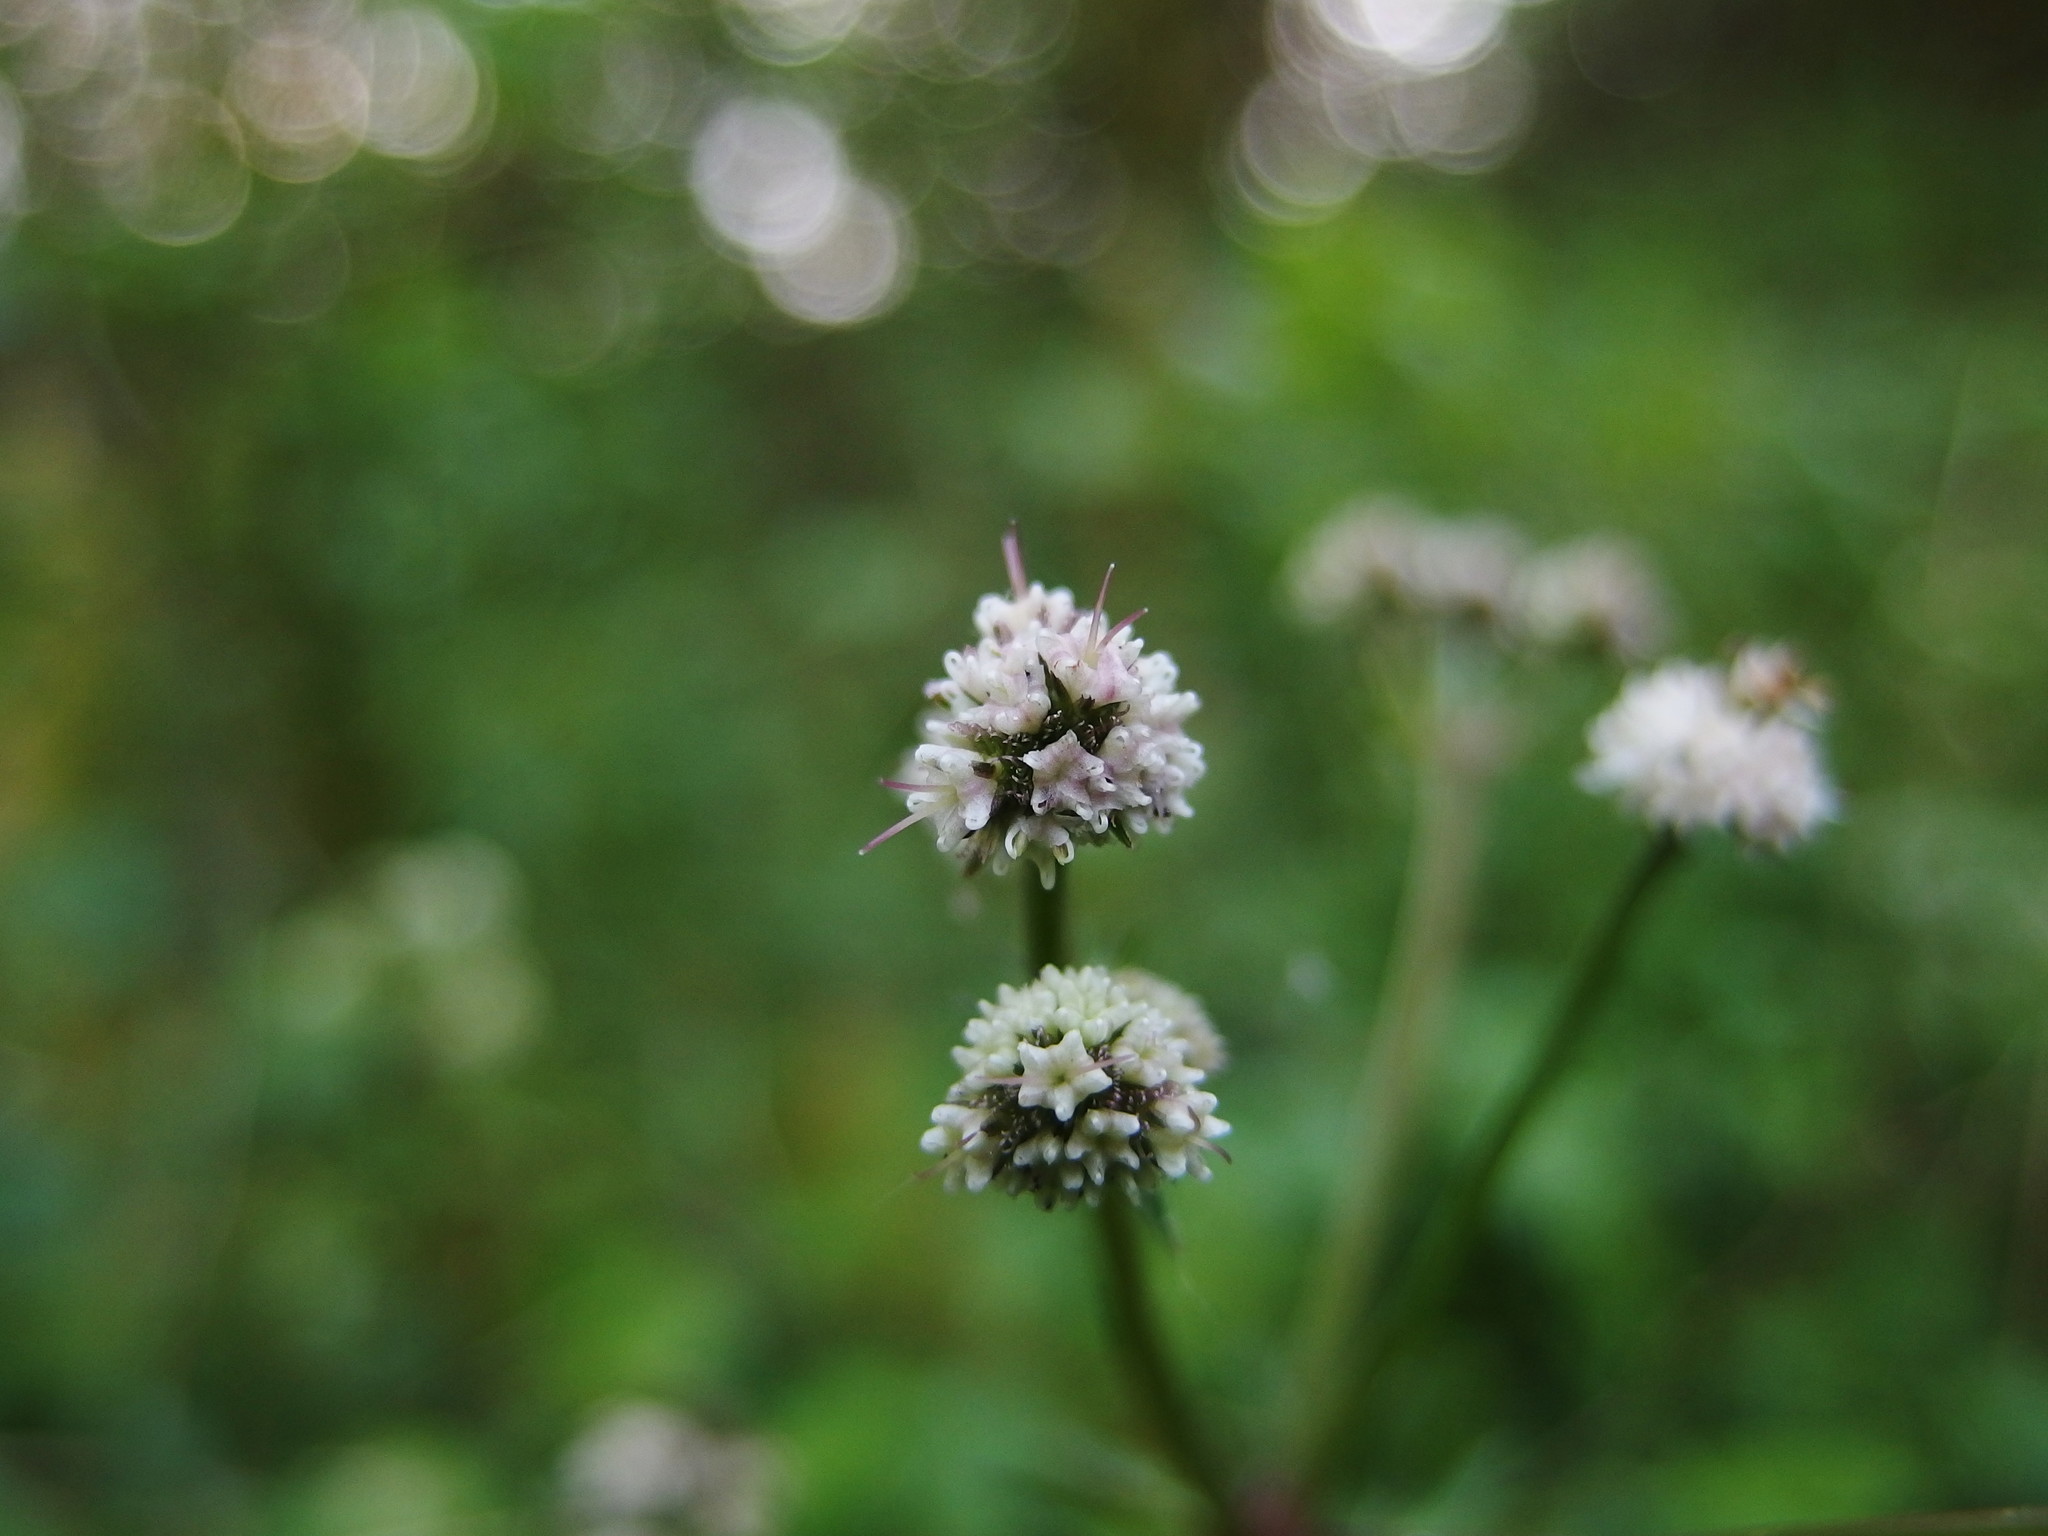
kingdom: Plantae
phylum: Tracheophyta
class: Magnoliopsida
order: Apiales
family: Apiaceae
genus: Sanicula
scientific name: Sanicula europaea
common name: Sanicle
